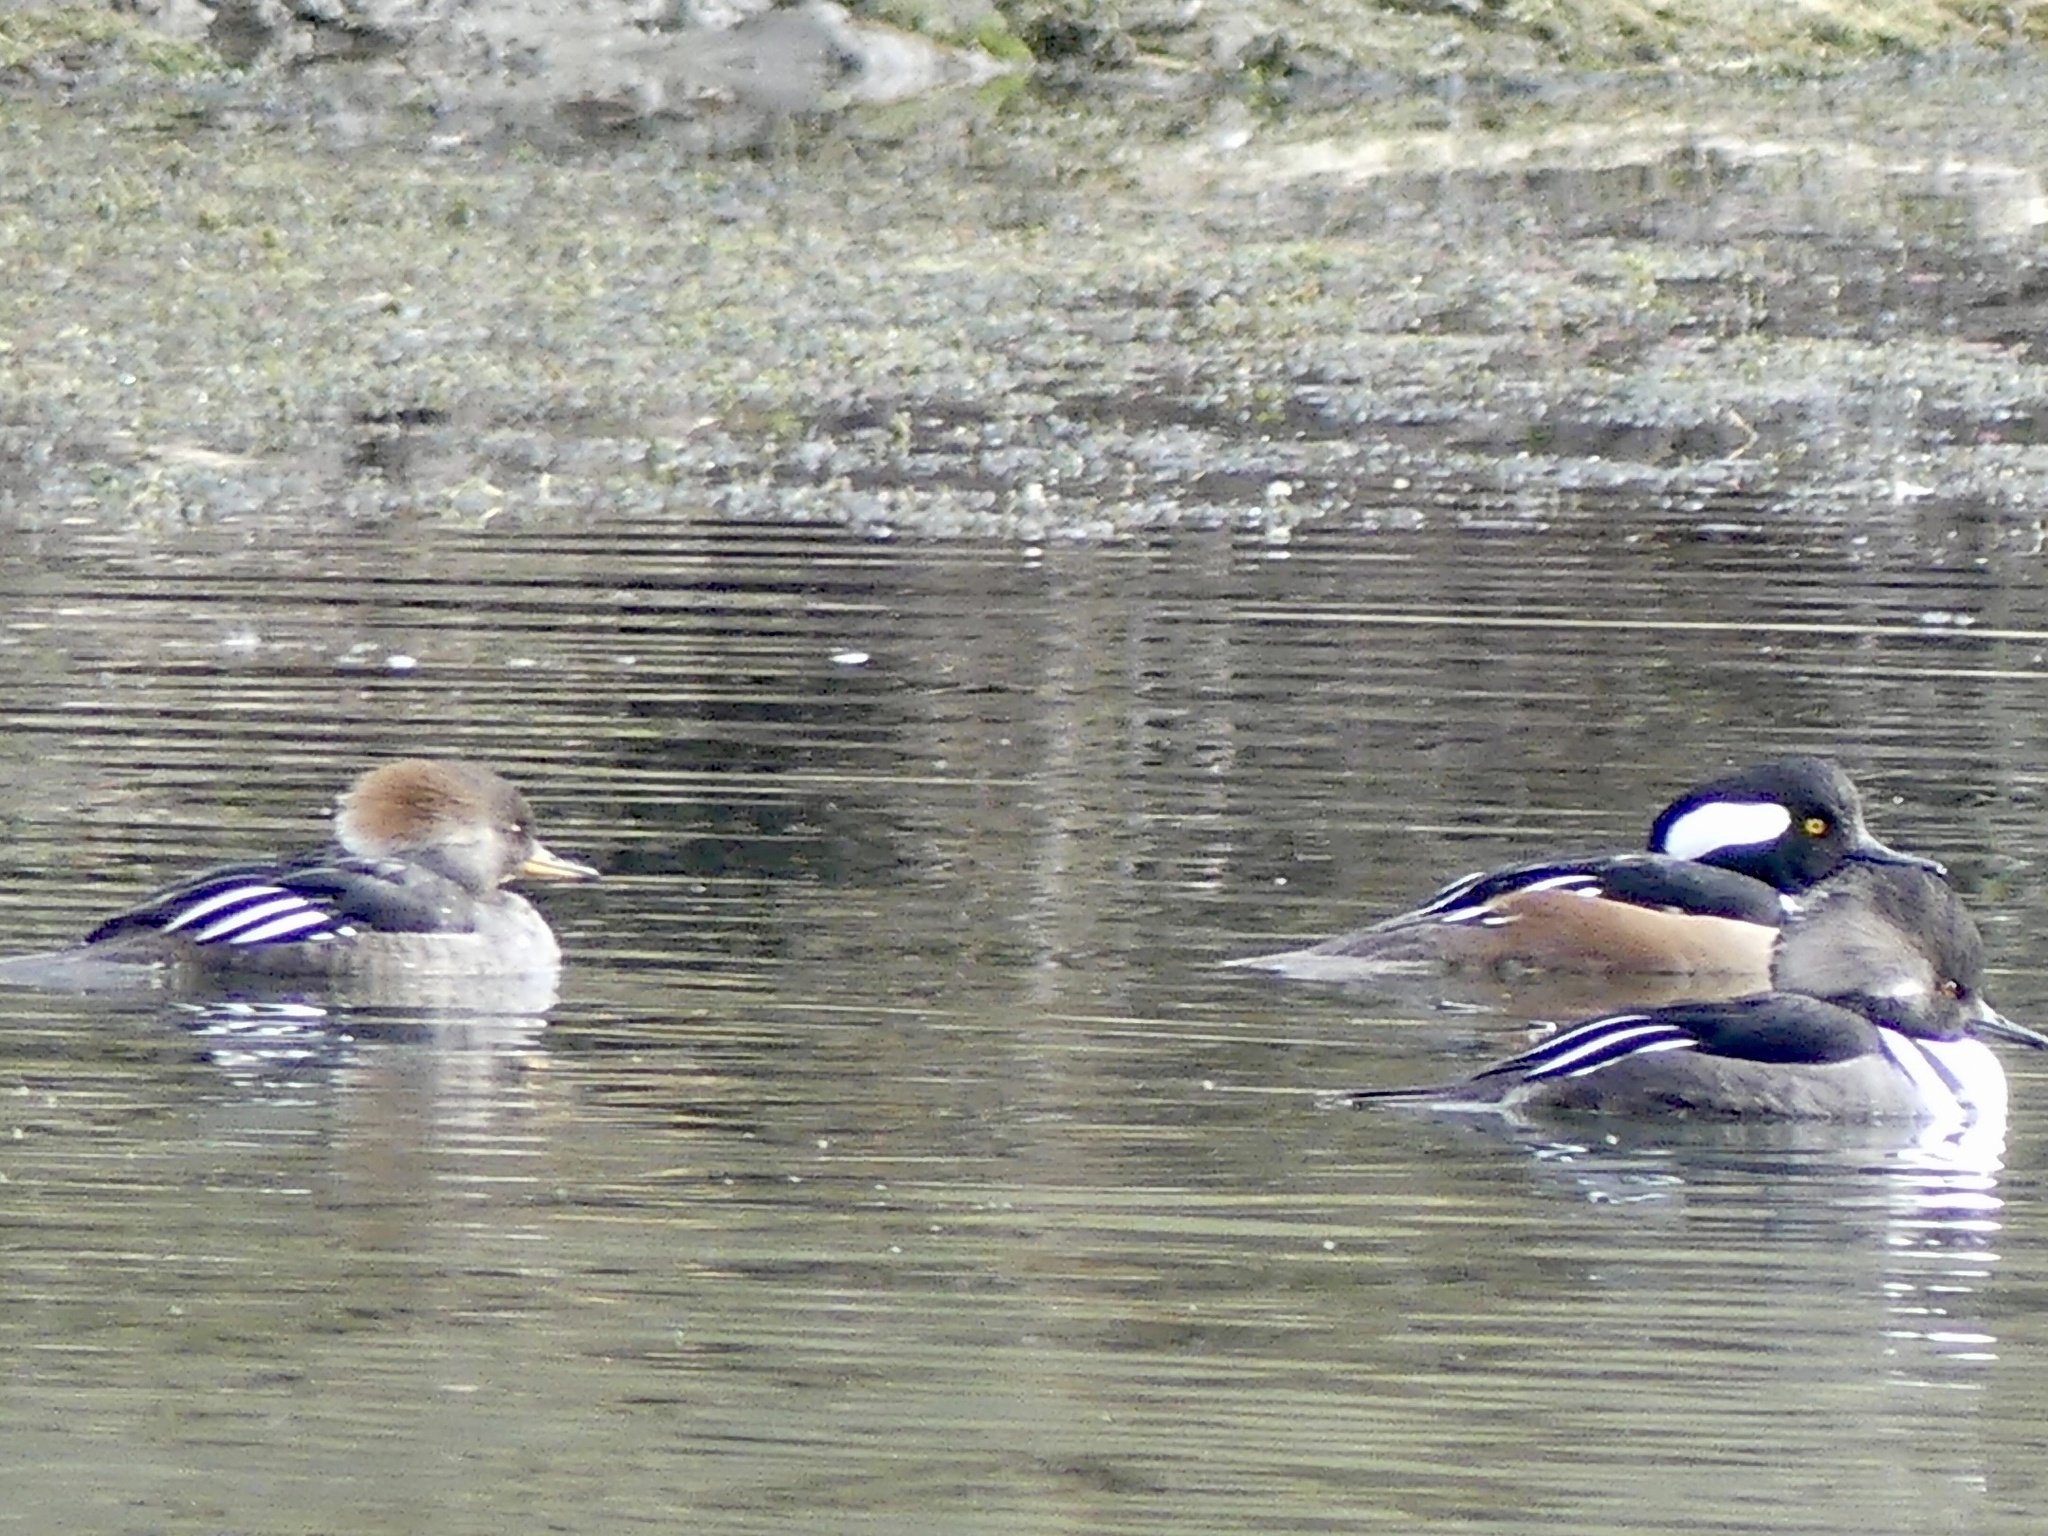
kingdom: Animalia
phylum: Chordata
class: Aves
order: Anseriformes
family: Anatidae
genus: Lophodytes
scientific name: Lophodytes cucullatus
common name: Hooded merganser
